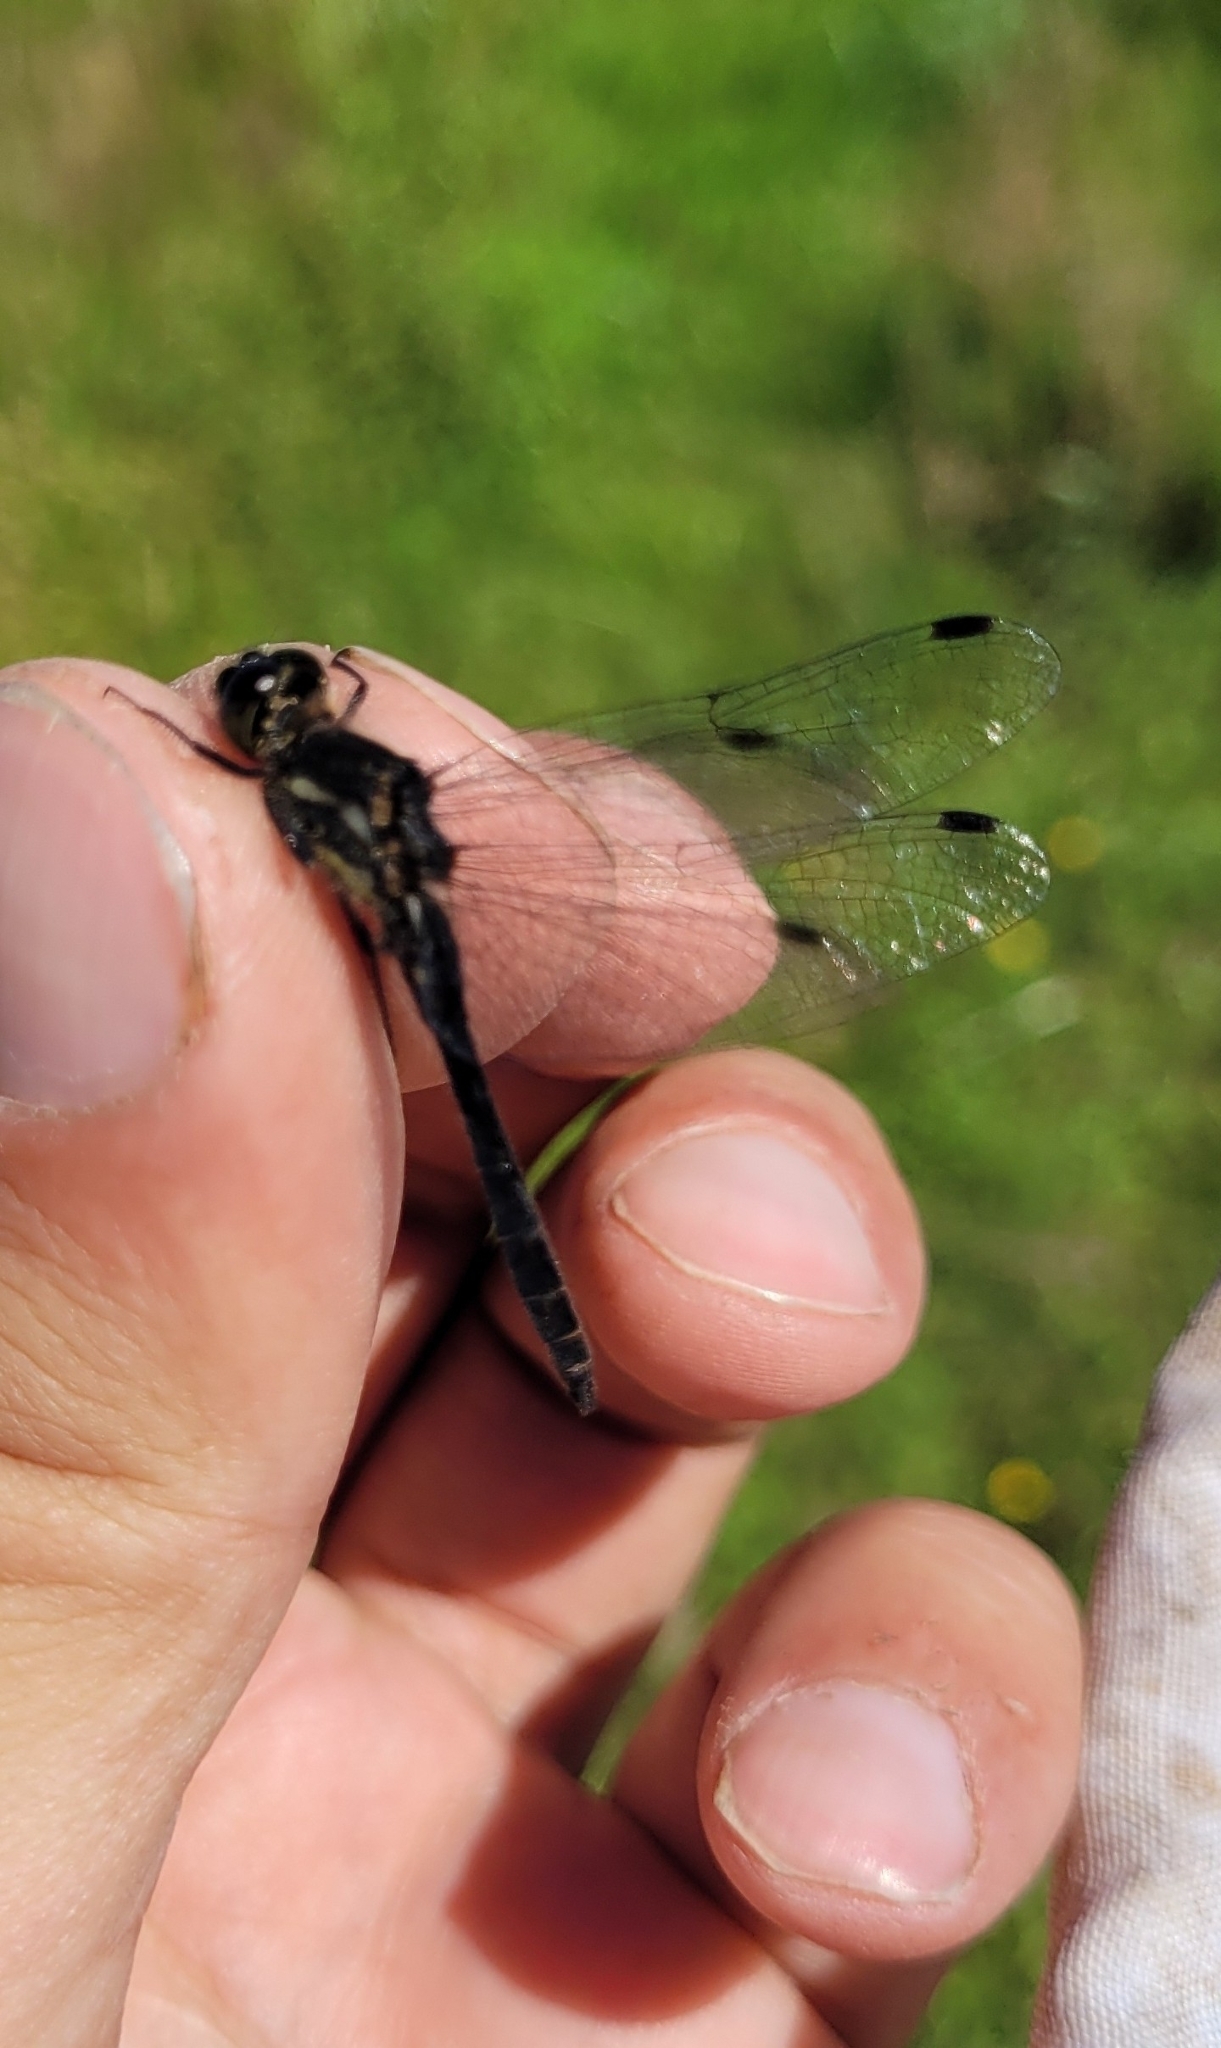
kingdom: Animalia
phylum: Arthropoda
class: Insecta
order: Odonata
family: Libellulidae
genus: Sympetrum
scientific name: Sympetrum danae
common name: Black darter
